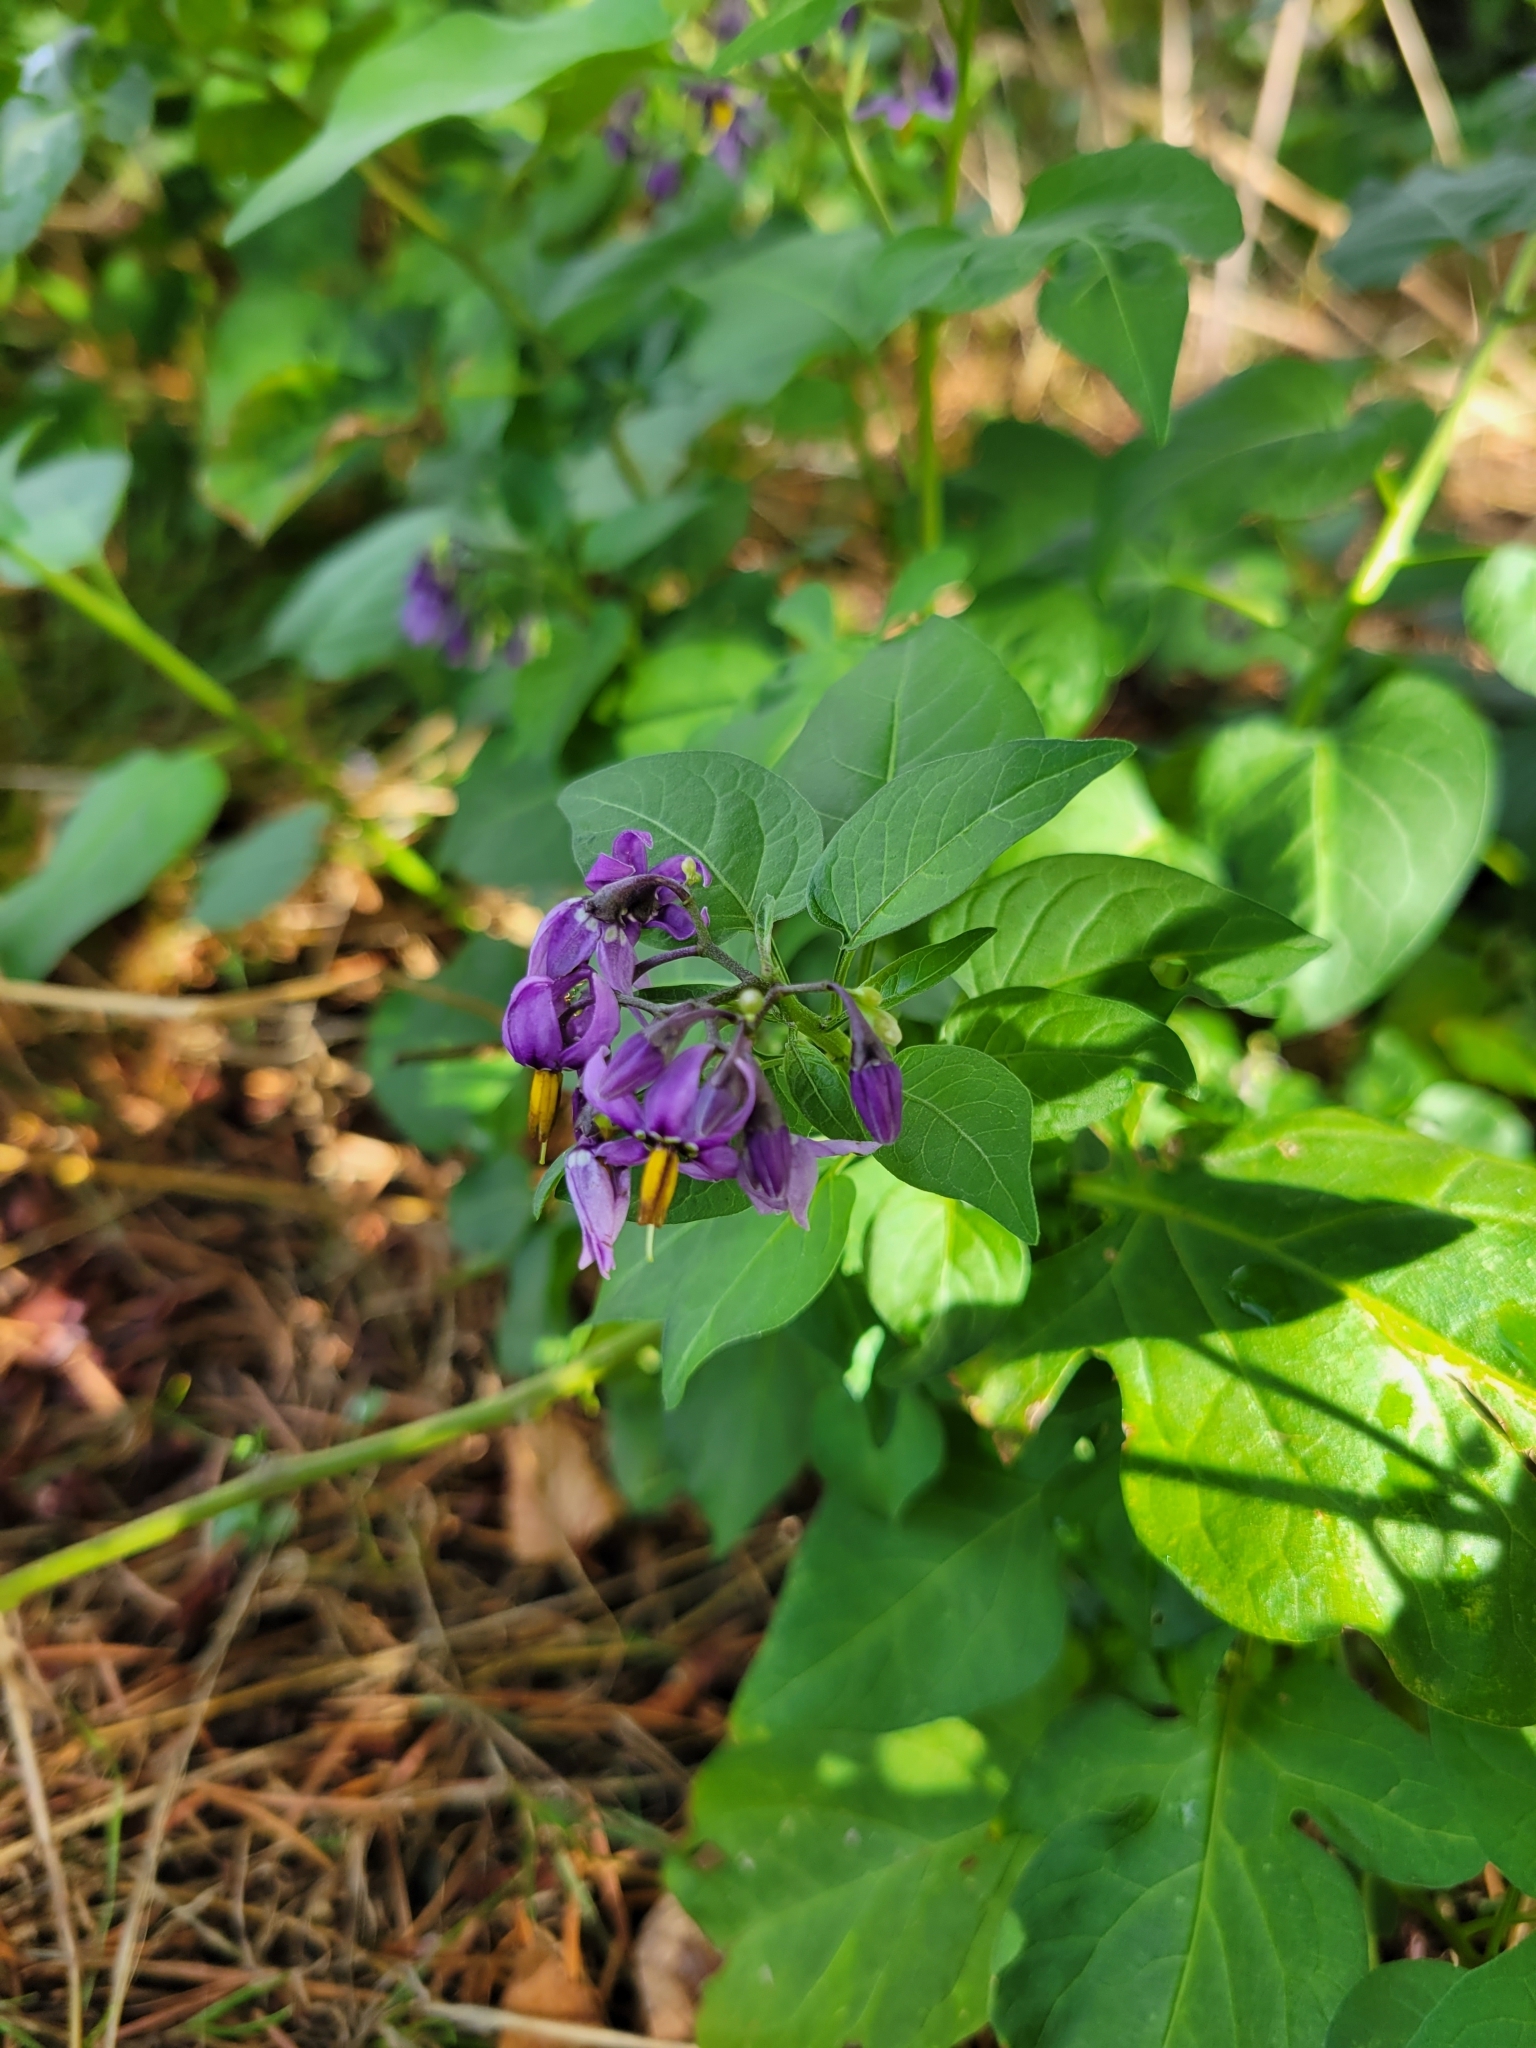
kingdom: Plantae
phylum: Tracheophyta
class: Magnoliopsida
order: Solanales
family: Solanaceae
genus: Solanum
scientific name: Solanum dulcamara
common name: Climbing nightshade
